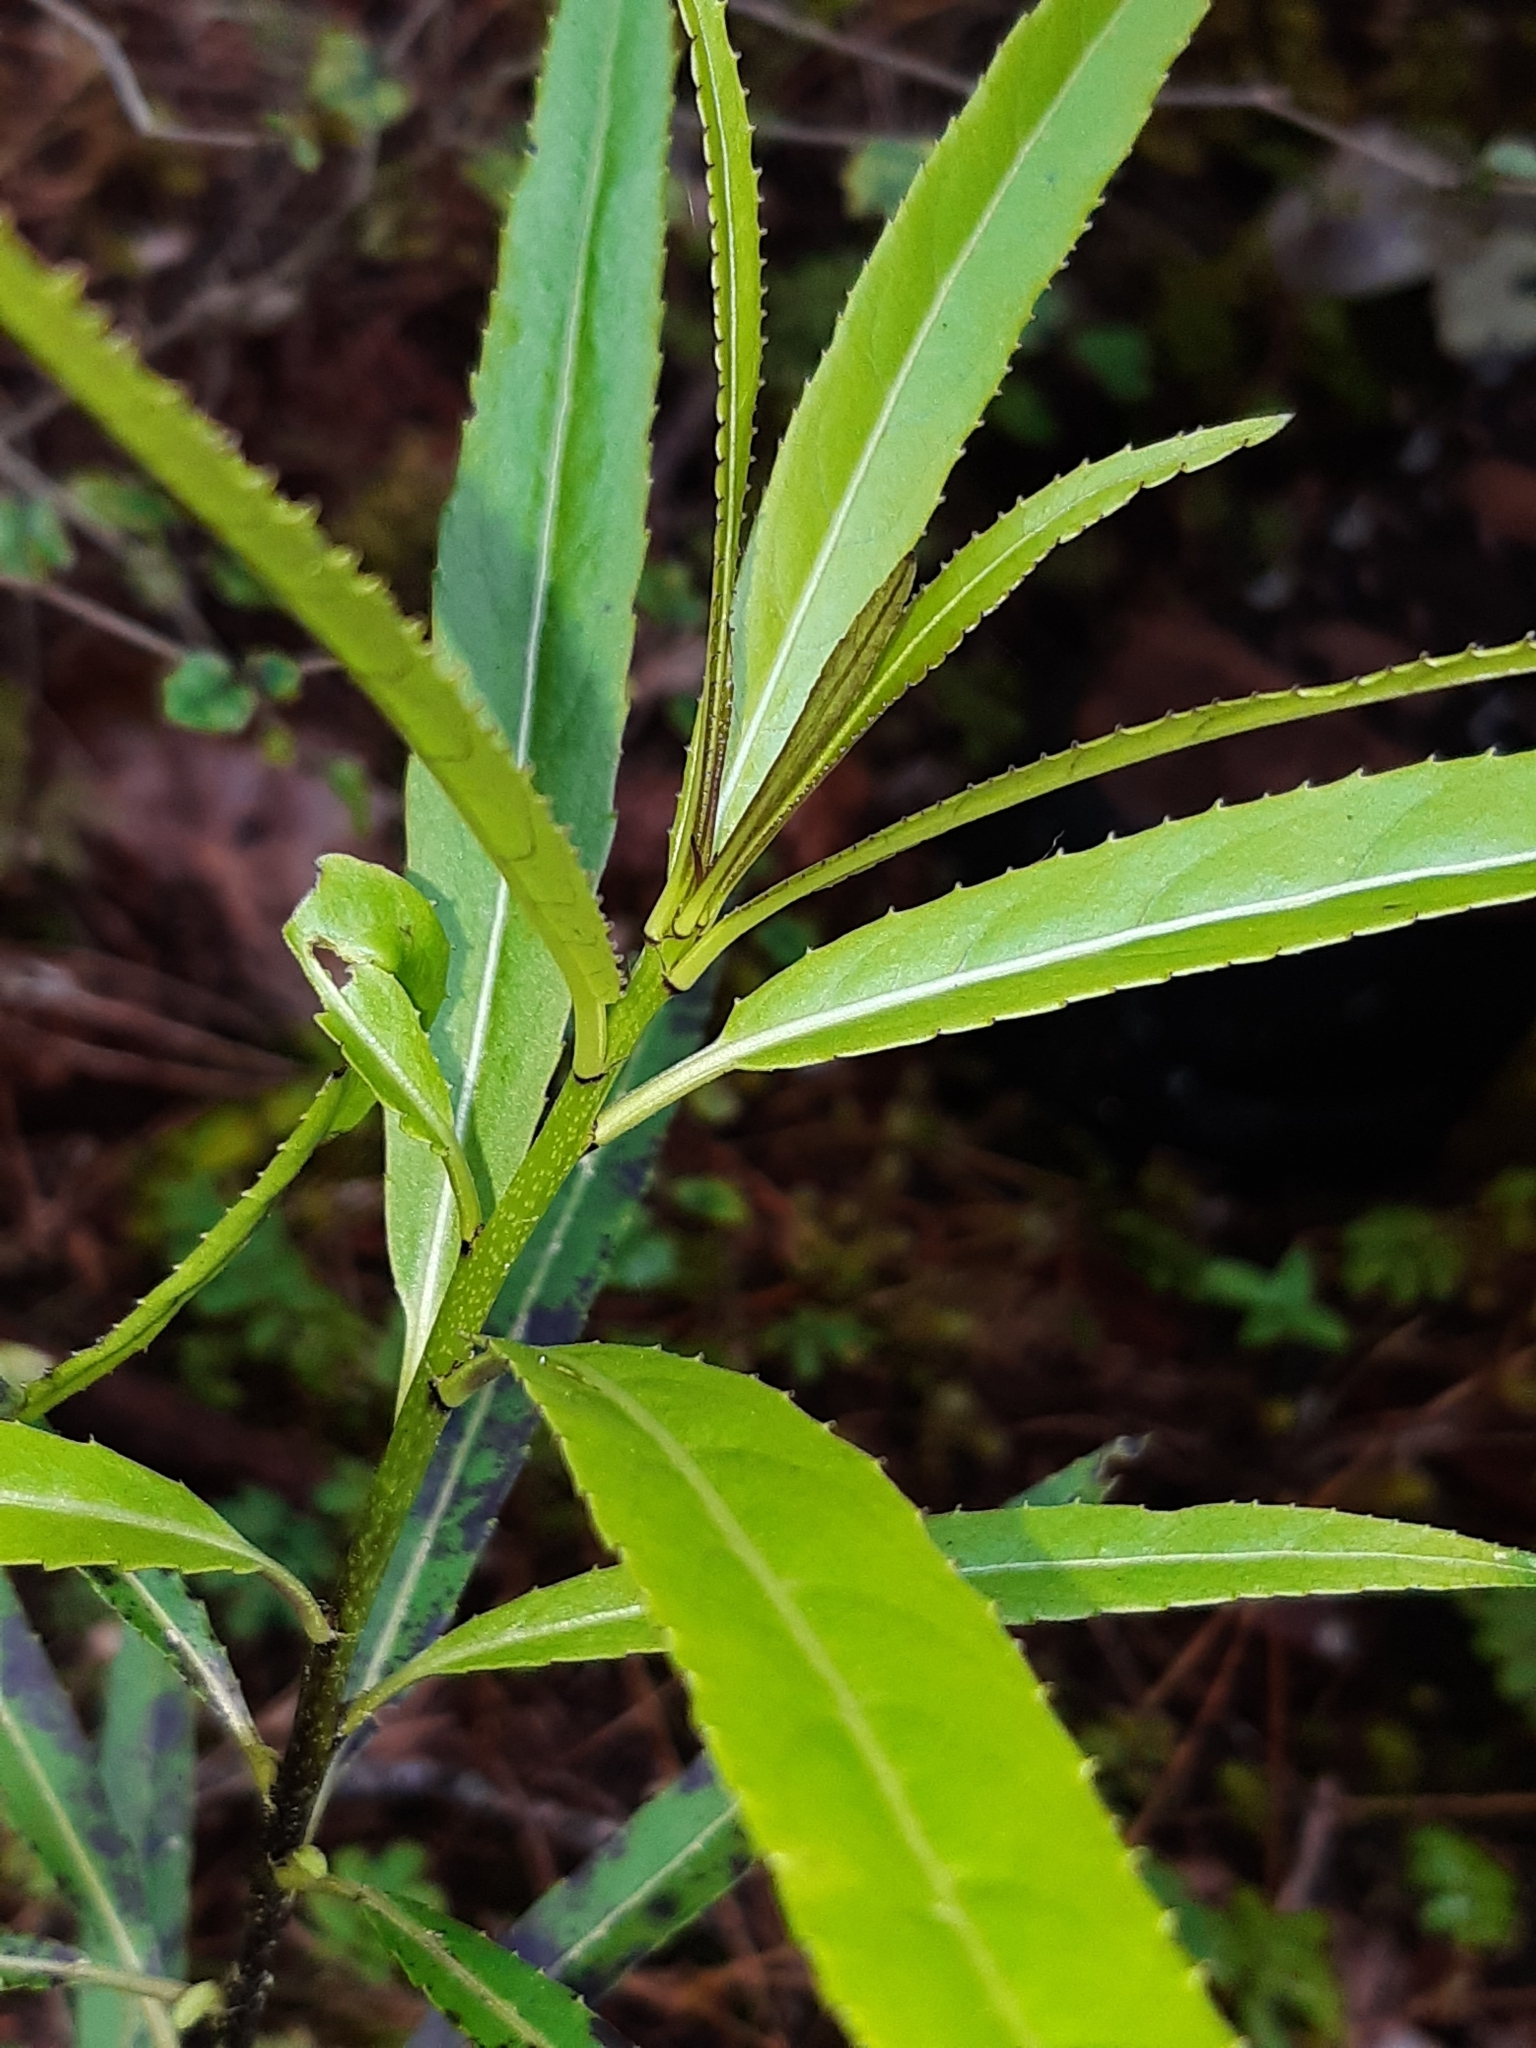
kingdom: Plantae
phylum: Tracheophyta
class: Magnoliopsida
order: Malpighiales
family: Violaceae
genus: Melicytus
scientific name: Melicytus lanceolatus
